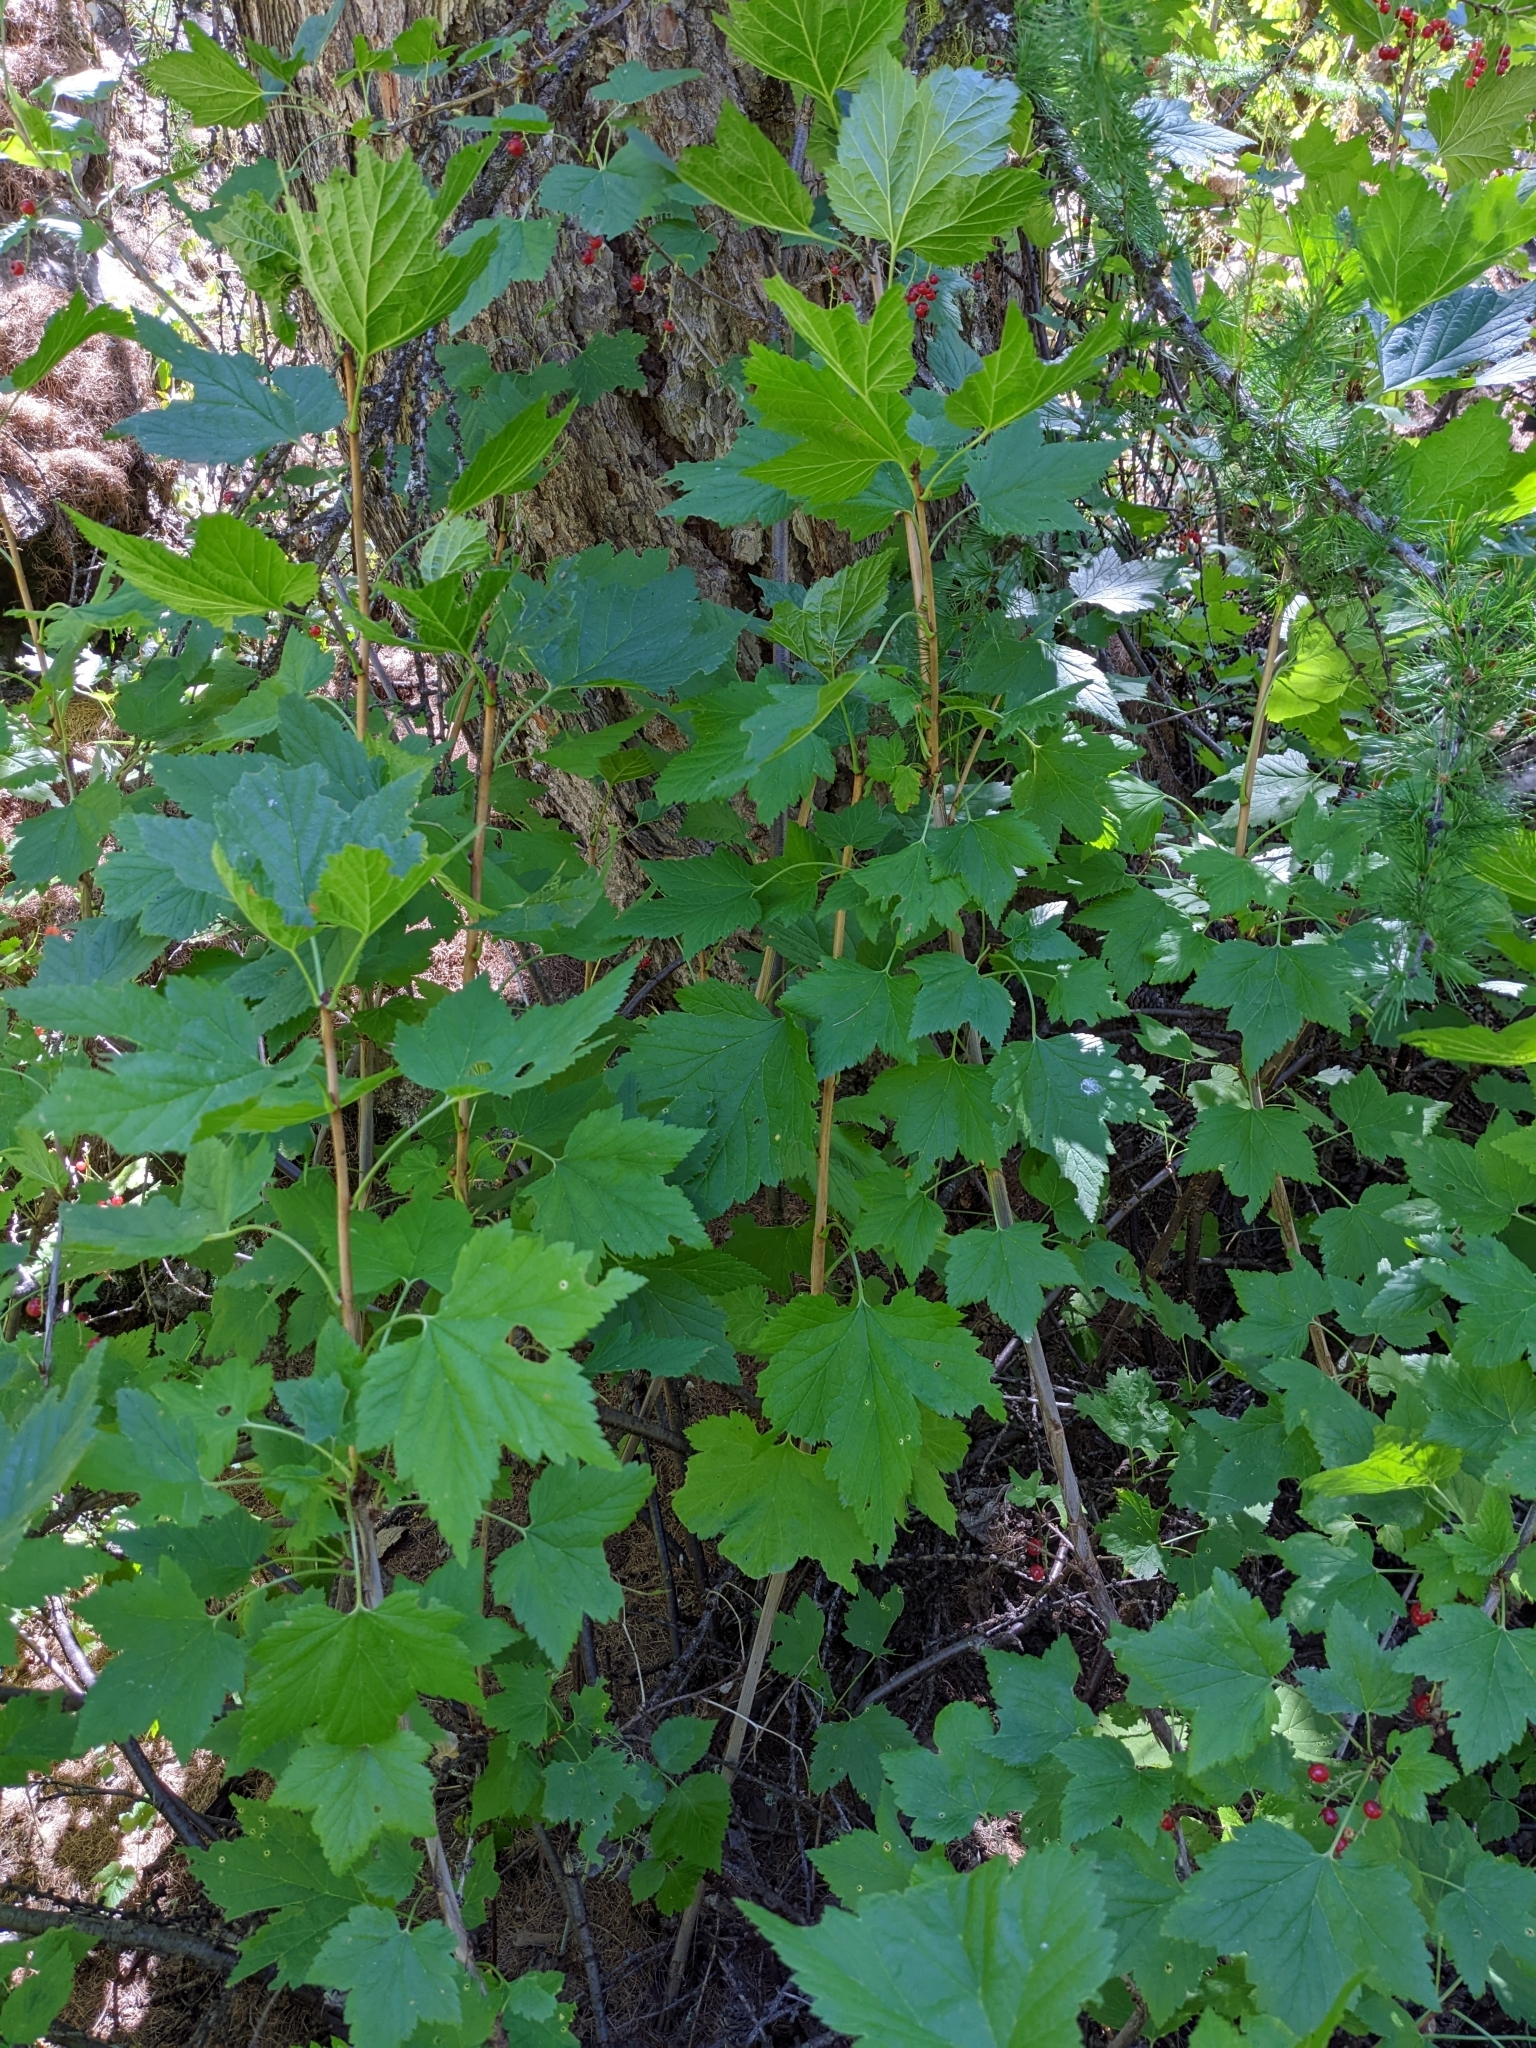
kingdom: Plantae
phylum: Tracheophyta
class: Magnoliopsida
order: Saxifragales
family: Grossulariaceae
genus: Ribes
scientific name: Ribes rubrum
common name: Red currant
